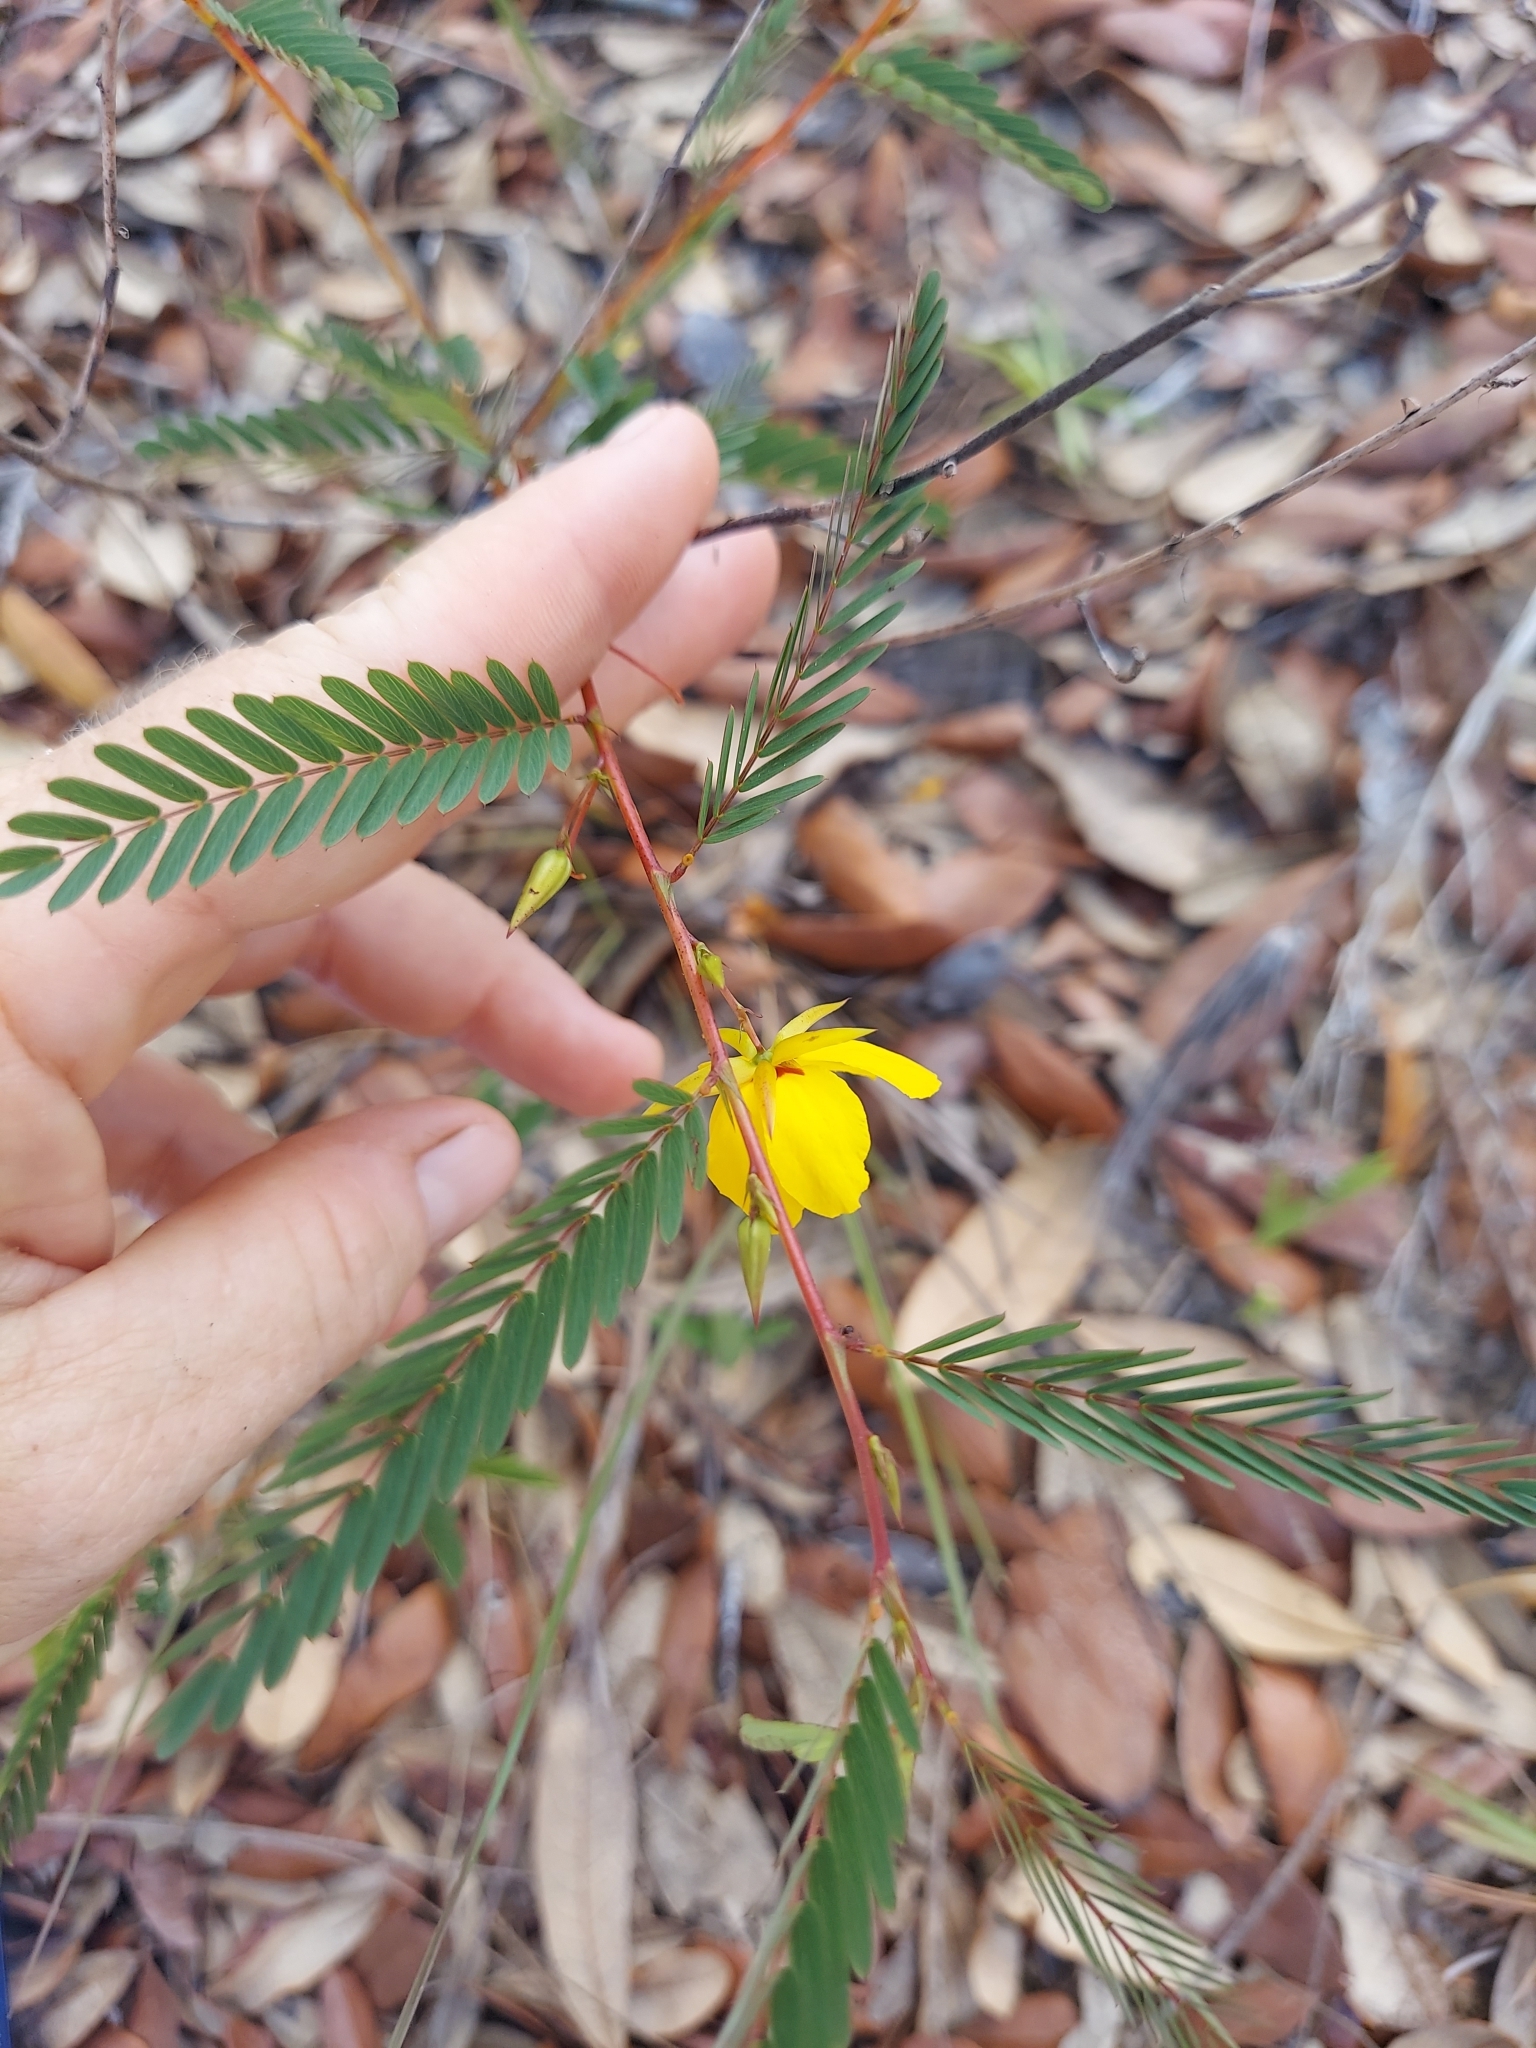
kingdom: Plantae
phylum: Tracheophyta
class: Magnoliopsida
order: Fabales
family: Fabaceae
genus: Chamaecrista
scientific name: Chamaecrista fasciculata
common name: Golden cassia
